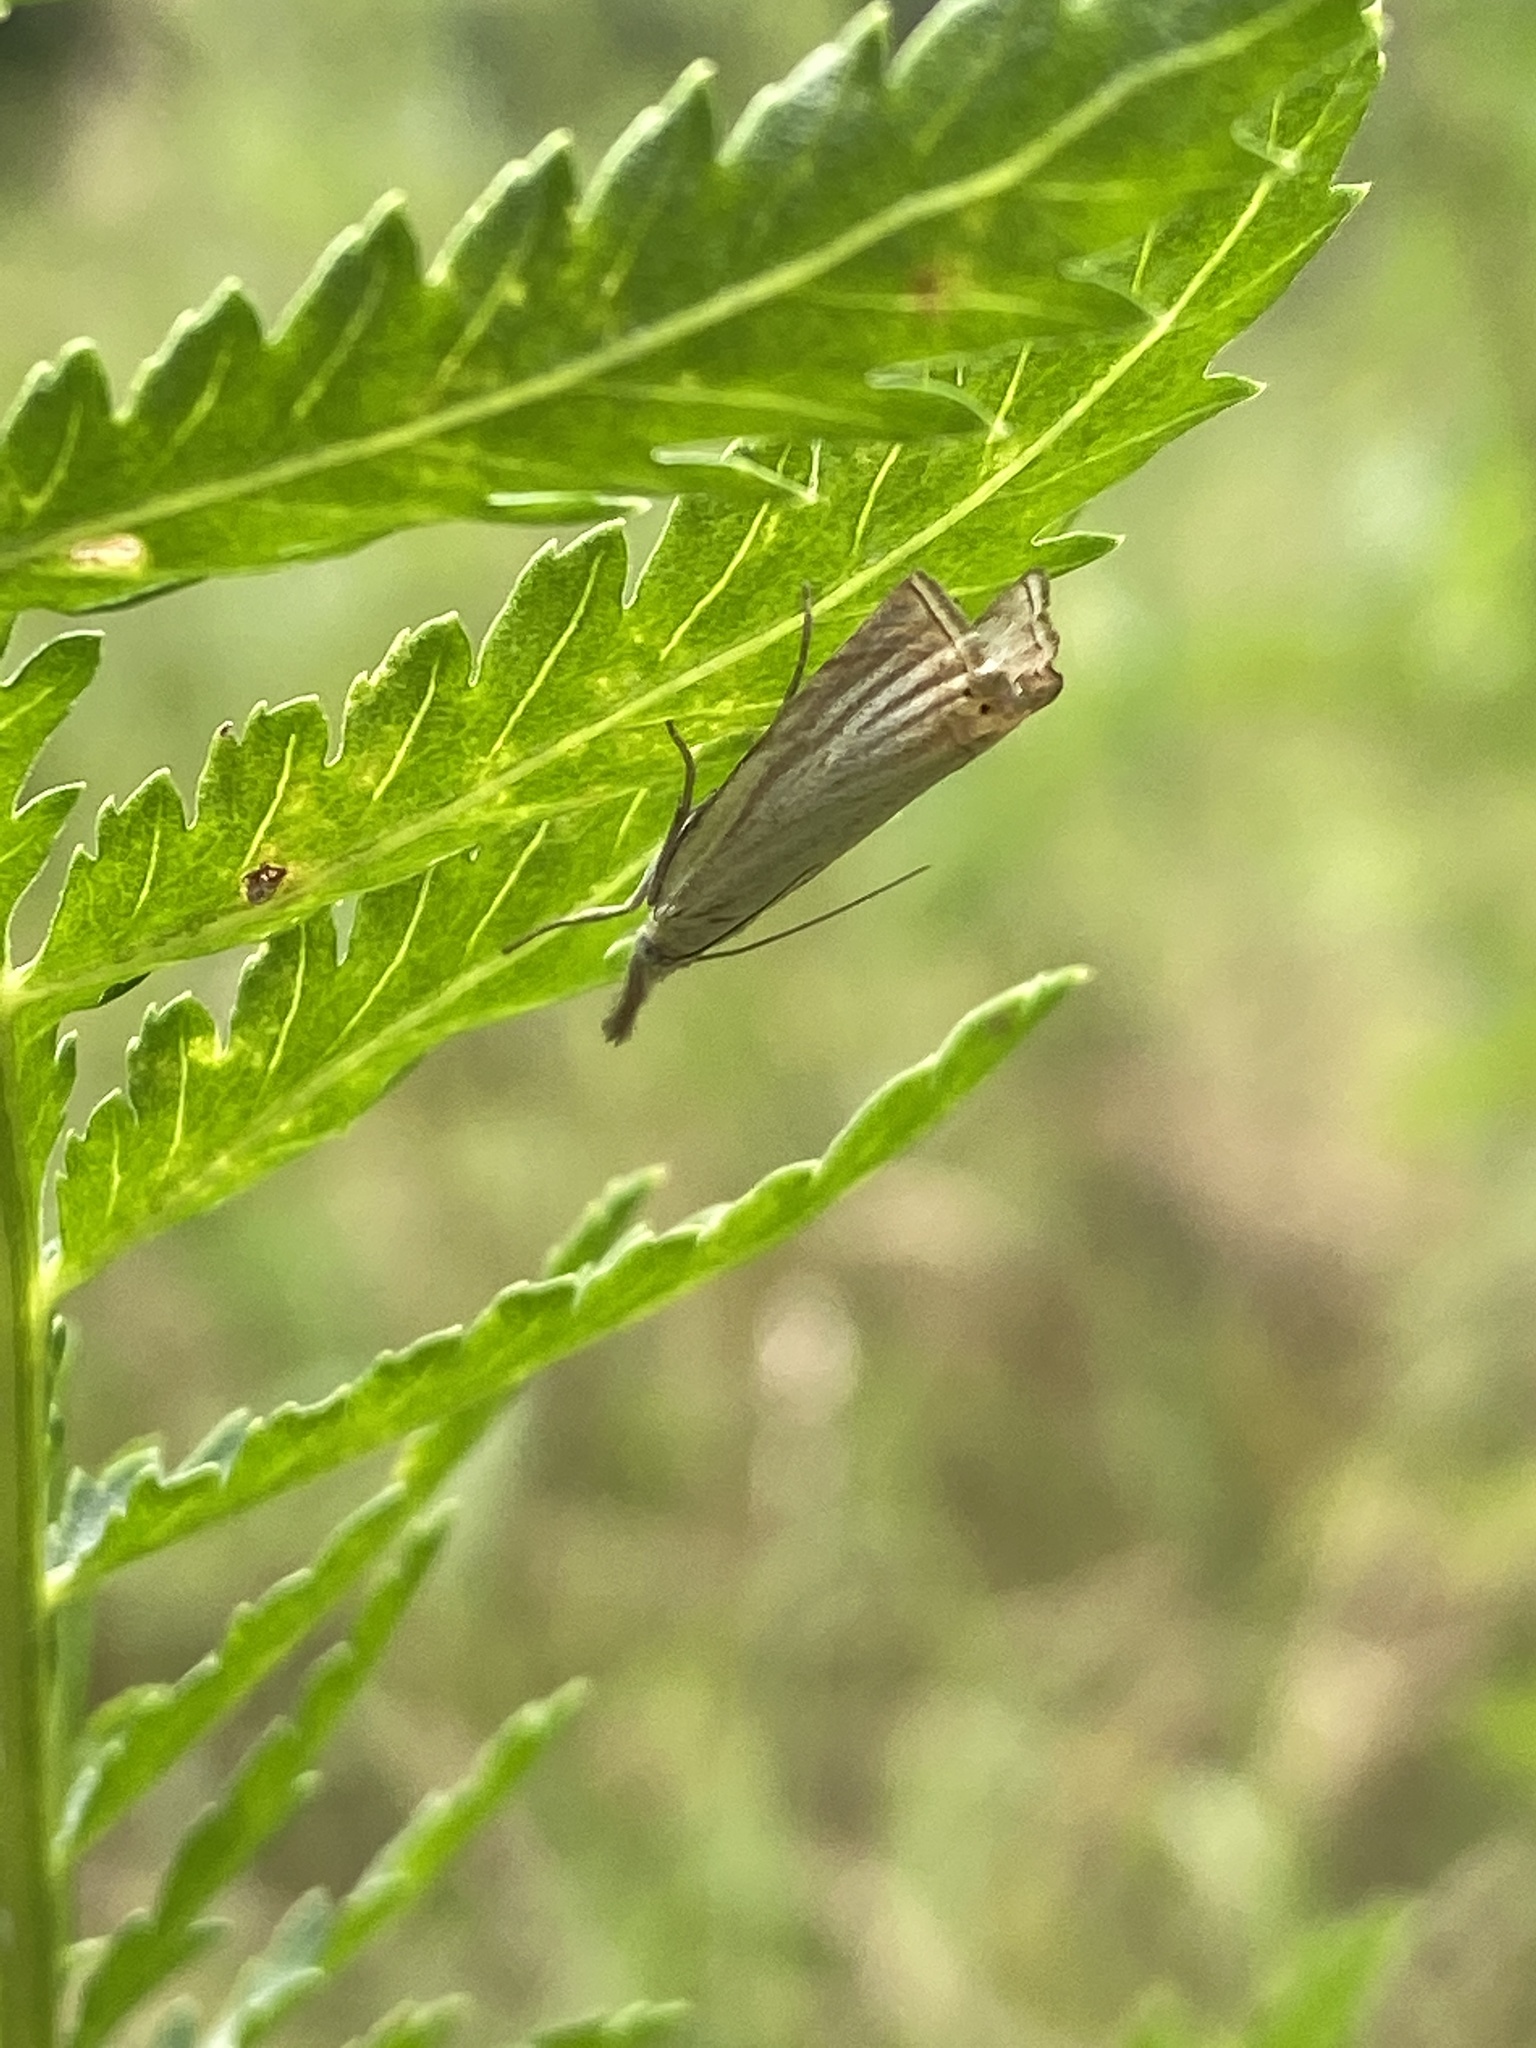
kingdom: Animalia
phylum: Arthropoda
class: Insecta
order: Lepidoptera
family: Crambidae
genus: Chrysoteuchia
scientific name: Chrysoteuchia culmella
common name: Garden grass-veneer
